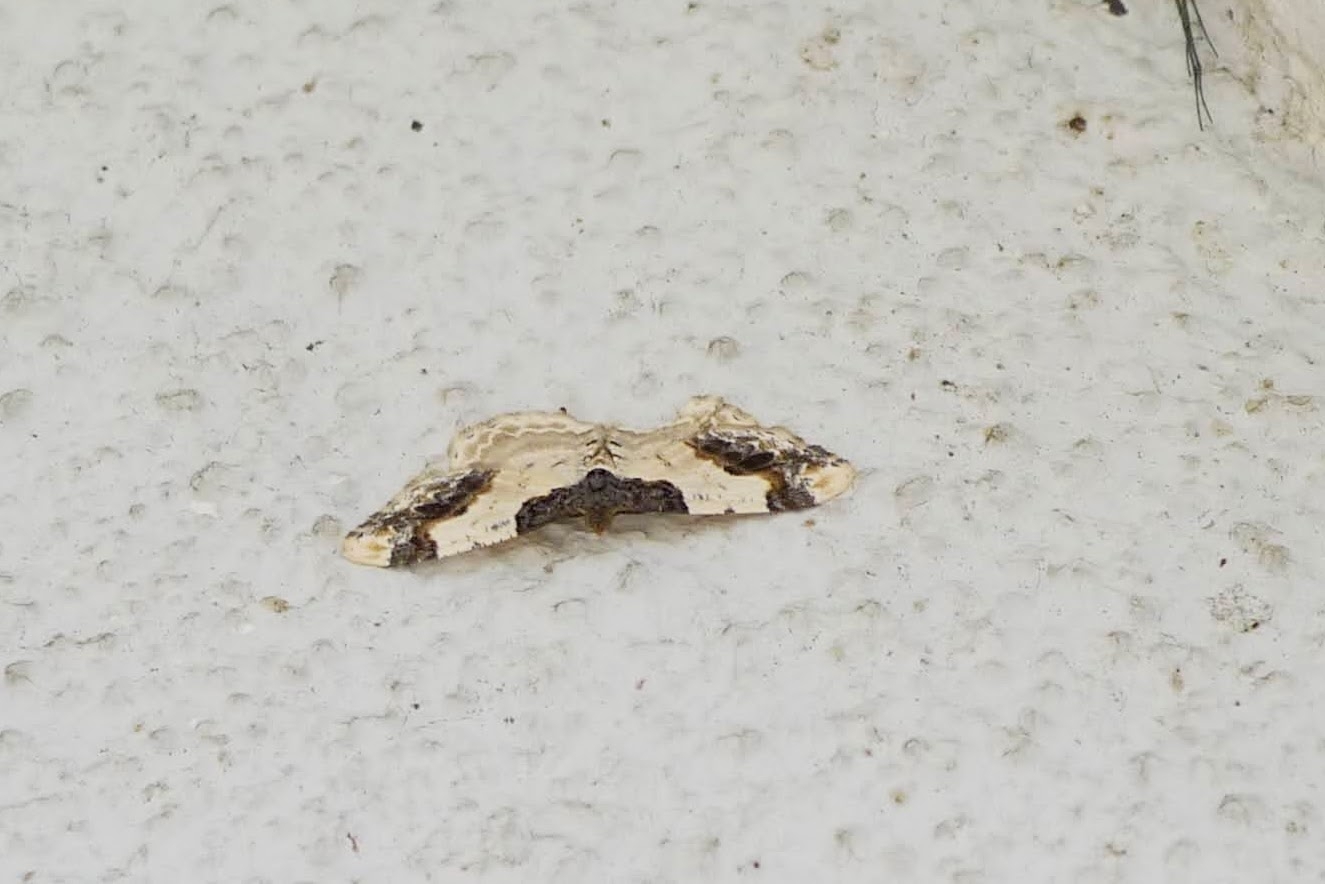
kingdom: Animalia
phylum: Arthropoda
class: Insecta
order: Lepidoptera
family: Geometridae
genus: Ligdia
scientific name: Ligdia adustata
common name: Scorched carpet
